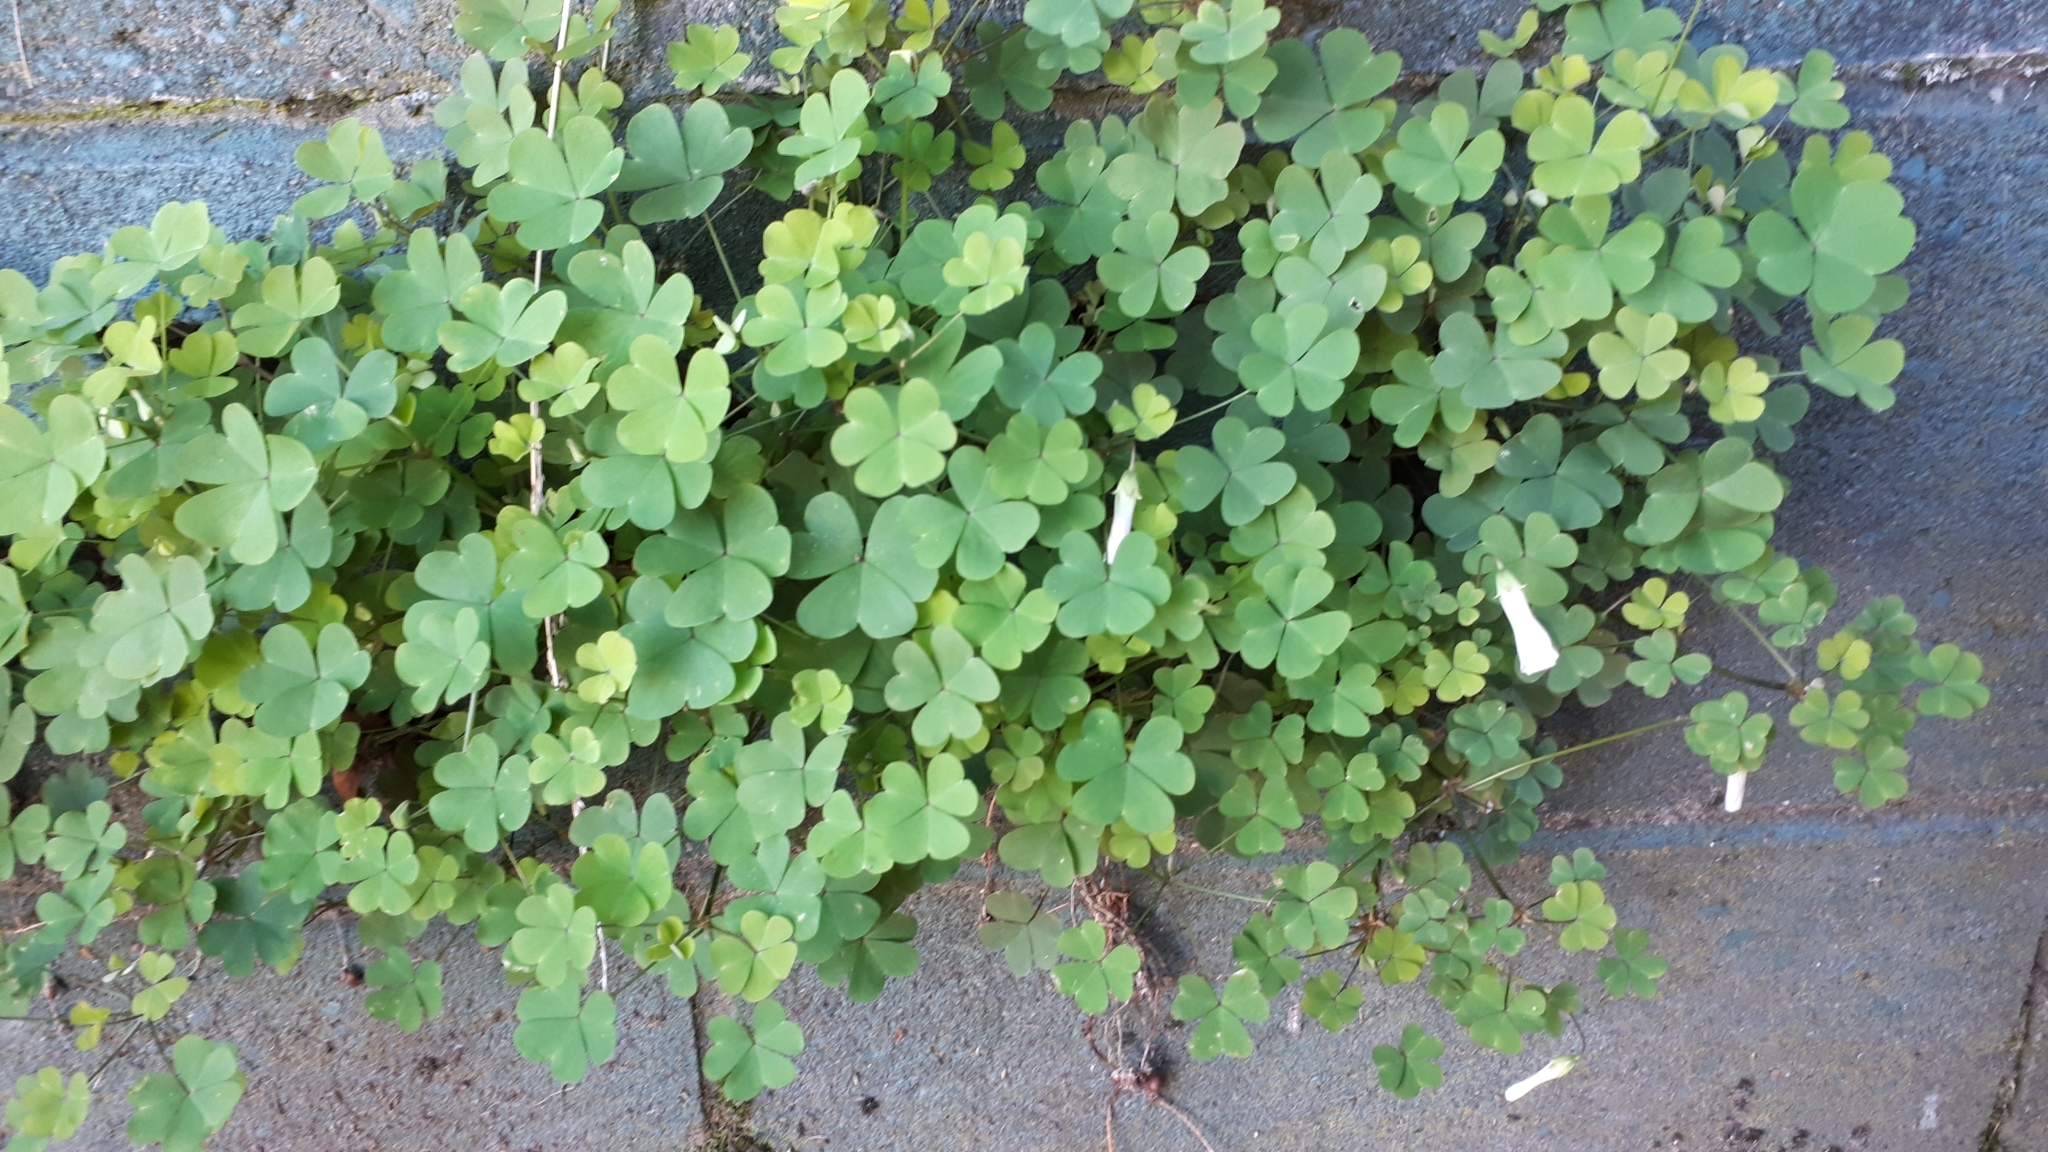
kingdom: Plantae
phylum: Tracheophyta
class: Magnoliopsida
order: Oxalidales
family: Oxalidaceae
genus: Oxalis
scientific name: Oxalis incarnata
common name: Pale pink-sorrel
